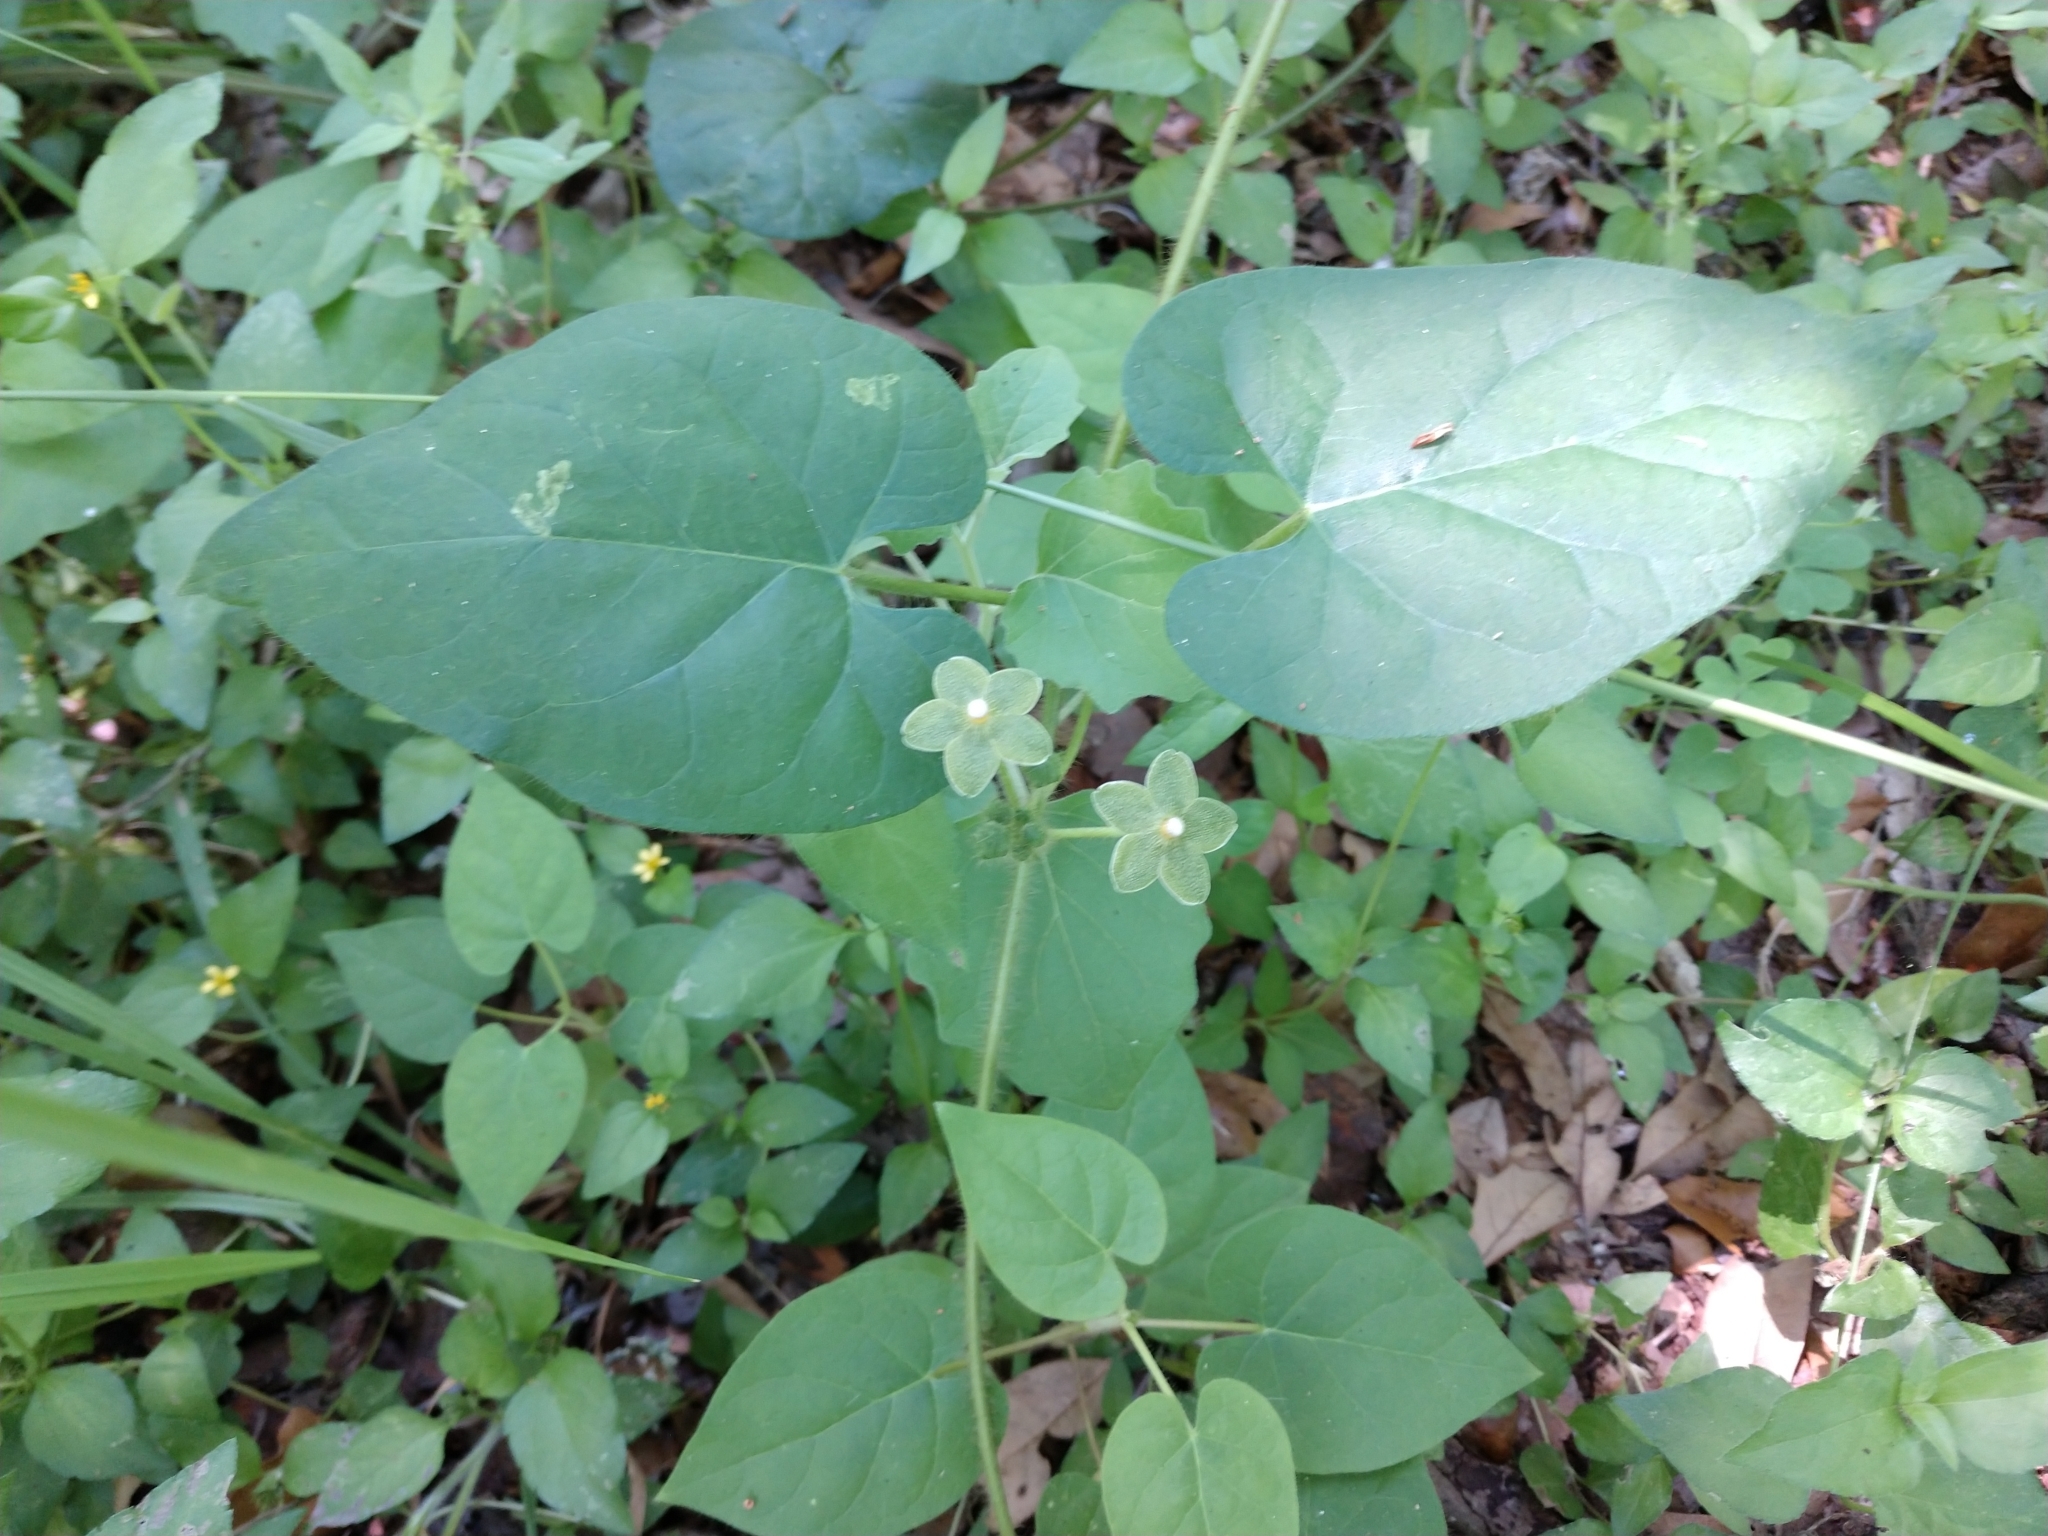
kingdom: Plantae
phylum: Tracheophyta
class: Magnoliopsida
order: Gentianales
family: Apocynaceae
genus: Dictyanthus
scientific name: Dictyanthus reticulatus
